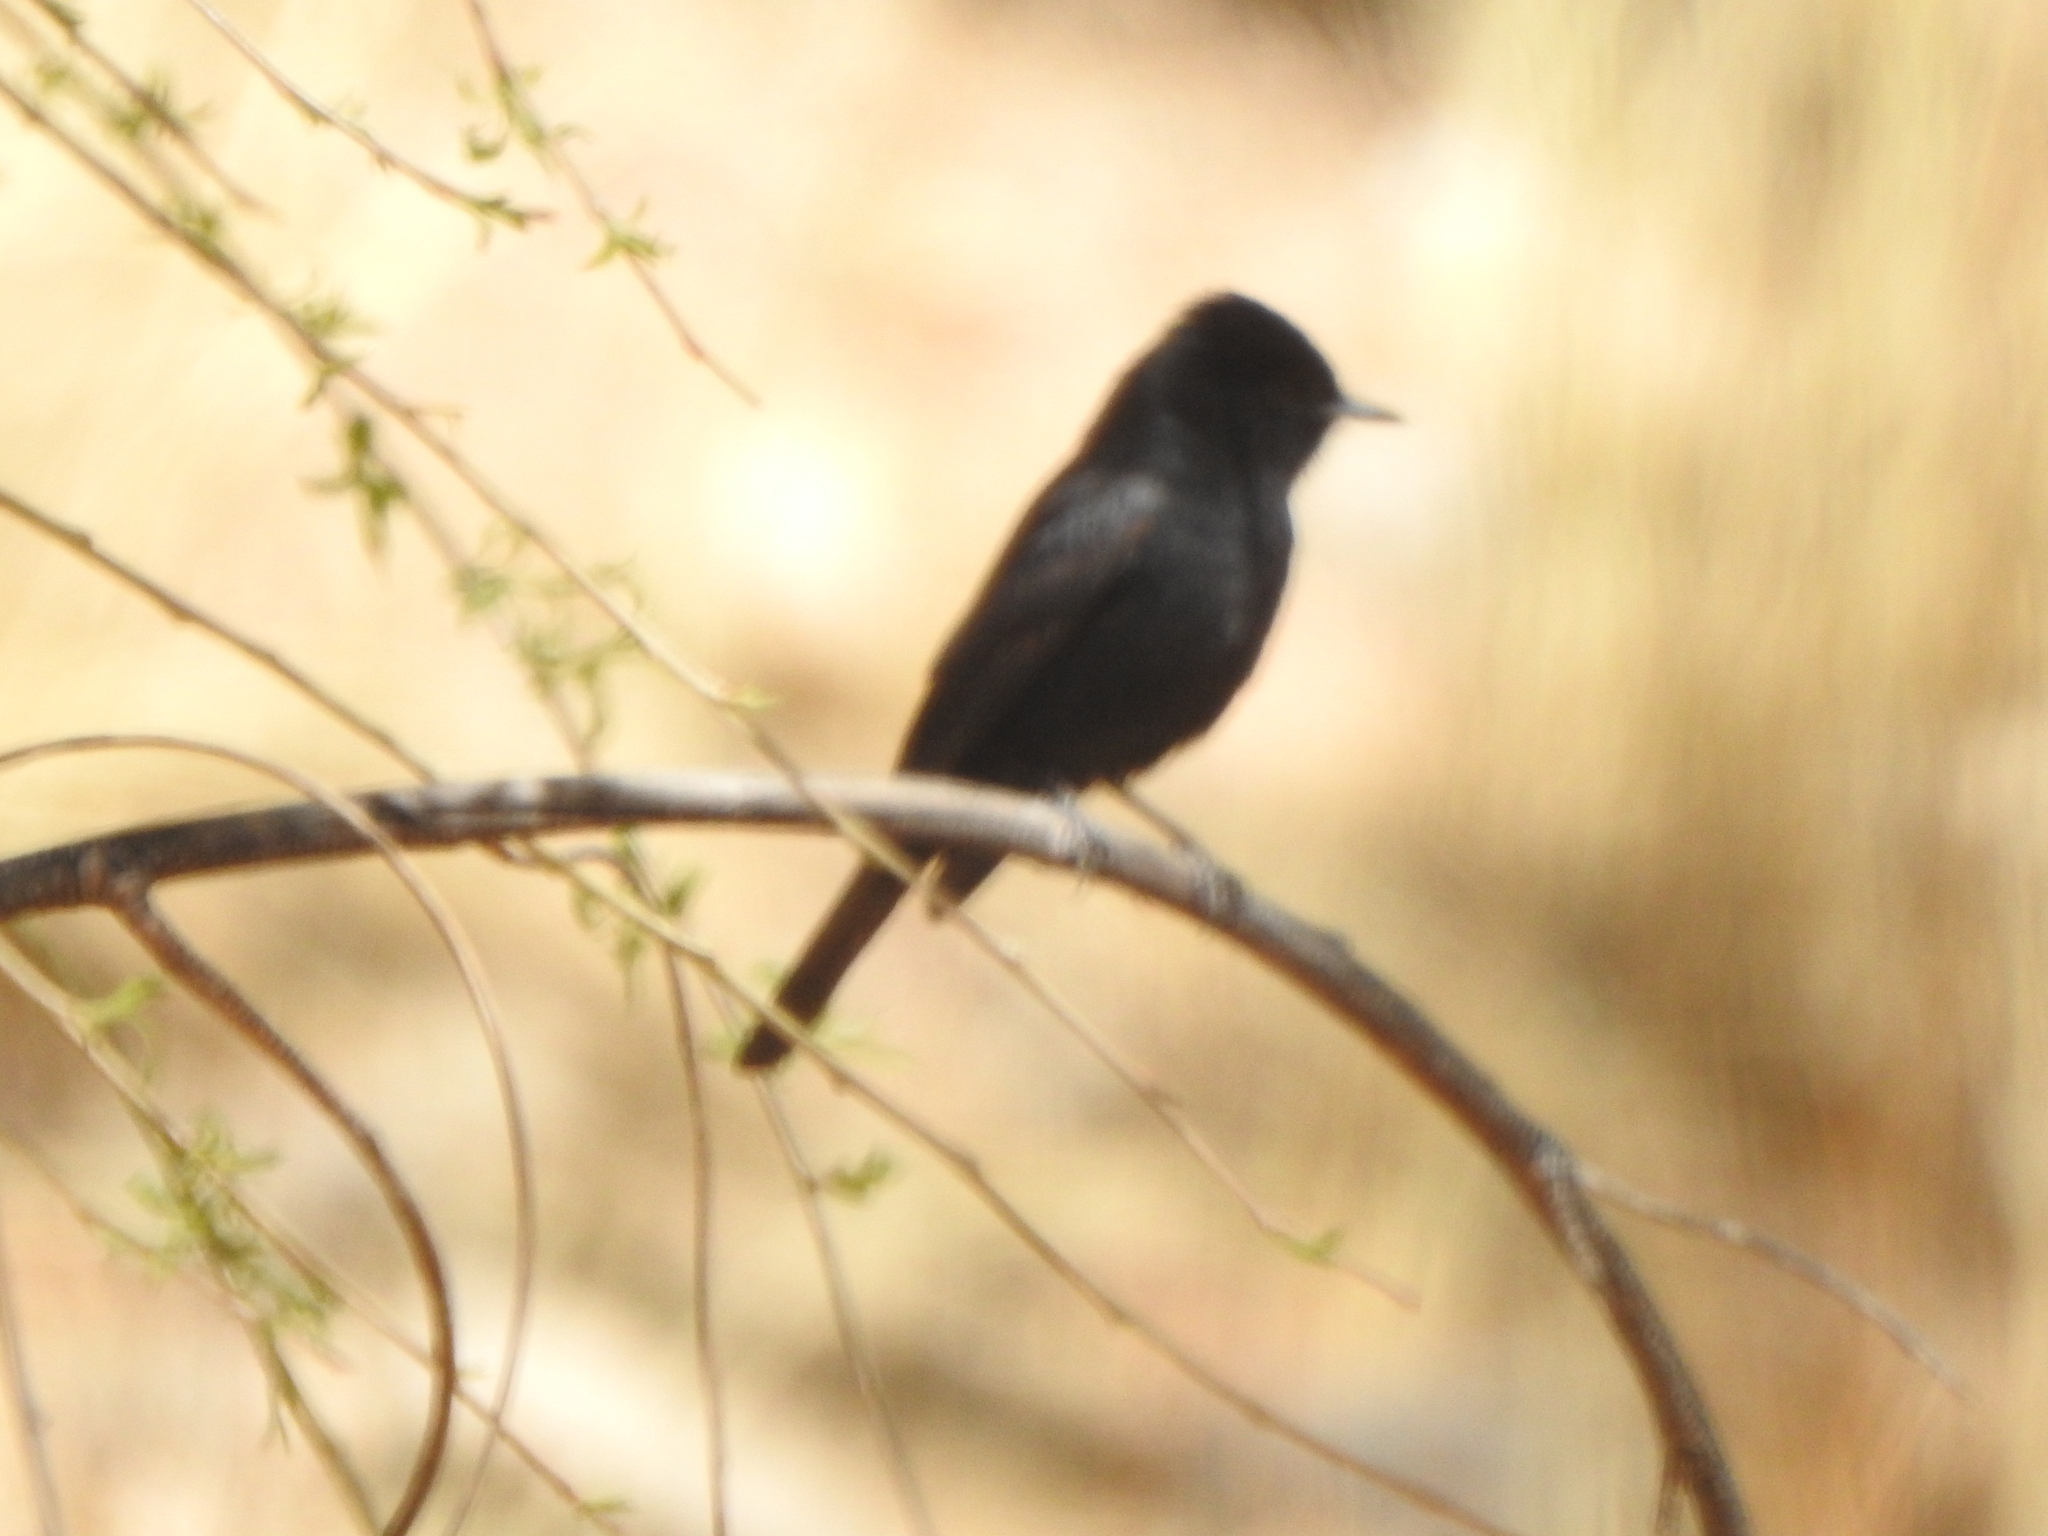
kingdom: Animalia
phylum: Chordata
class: Aves
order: Passeriformes
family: Tyrannidae
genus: Knipolegus
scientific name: Knipolegus aterrimus
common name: White-winged black tyrant
